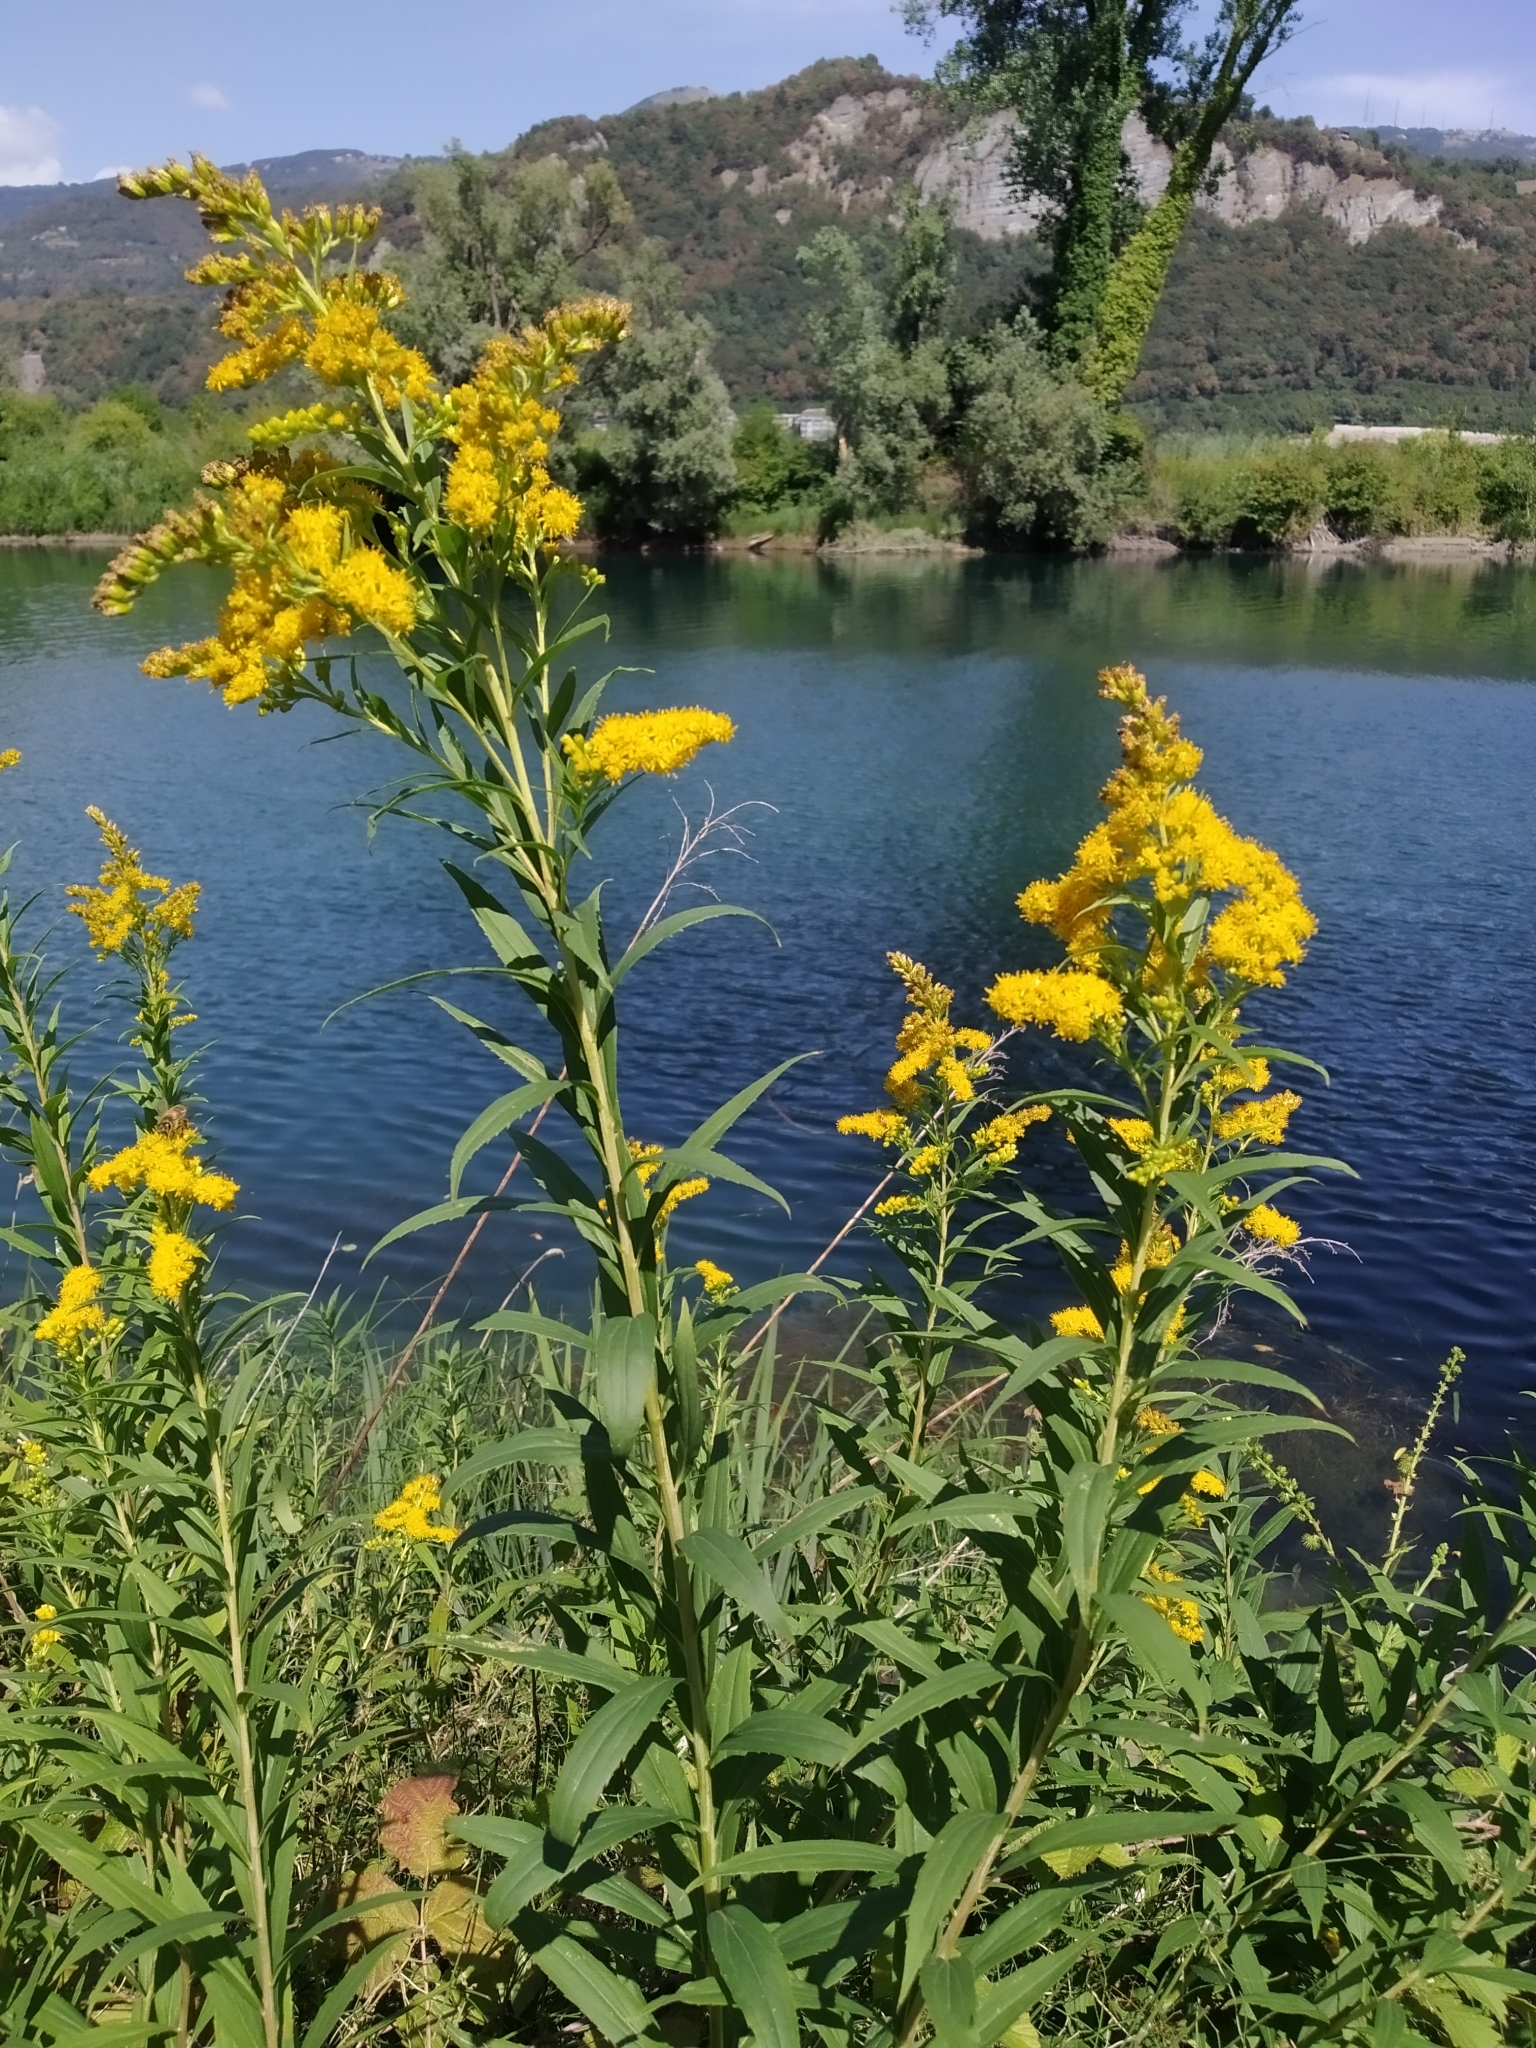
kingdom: Plantae
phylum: Tracheophyta
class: Magnoliopsida
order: Asterales
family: Asteraceae
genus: Solidago
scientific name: Solidago gigantea
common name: Giant goldenrod
